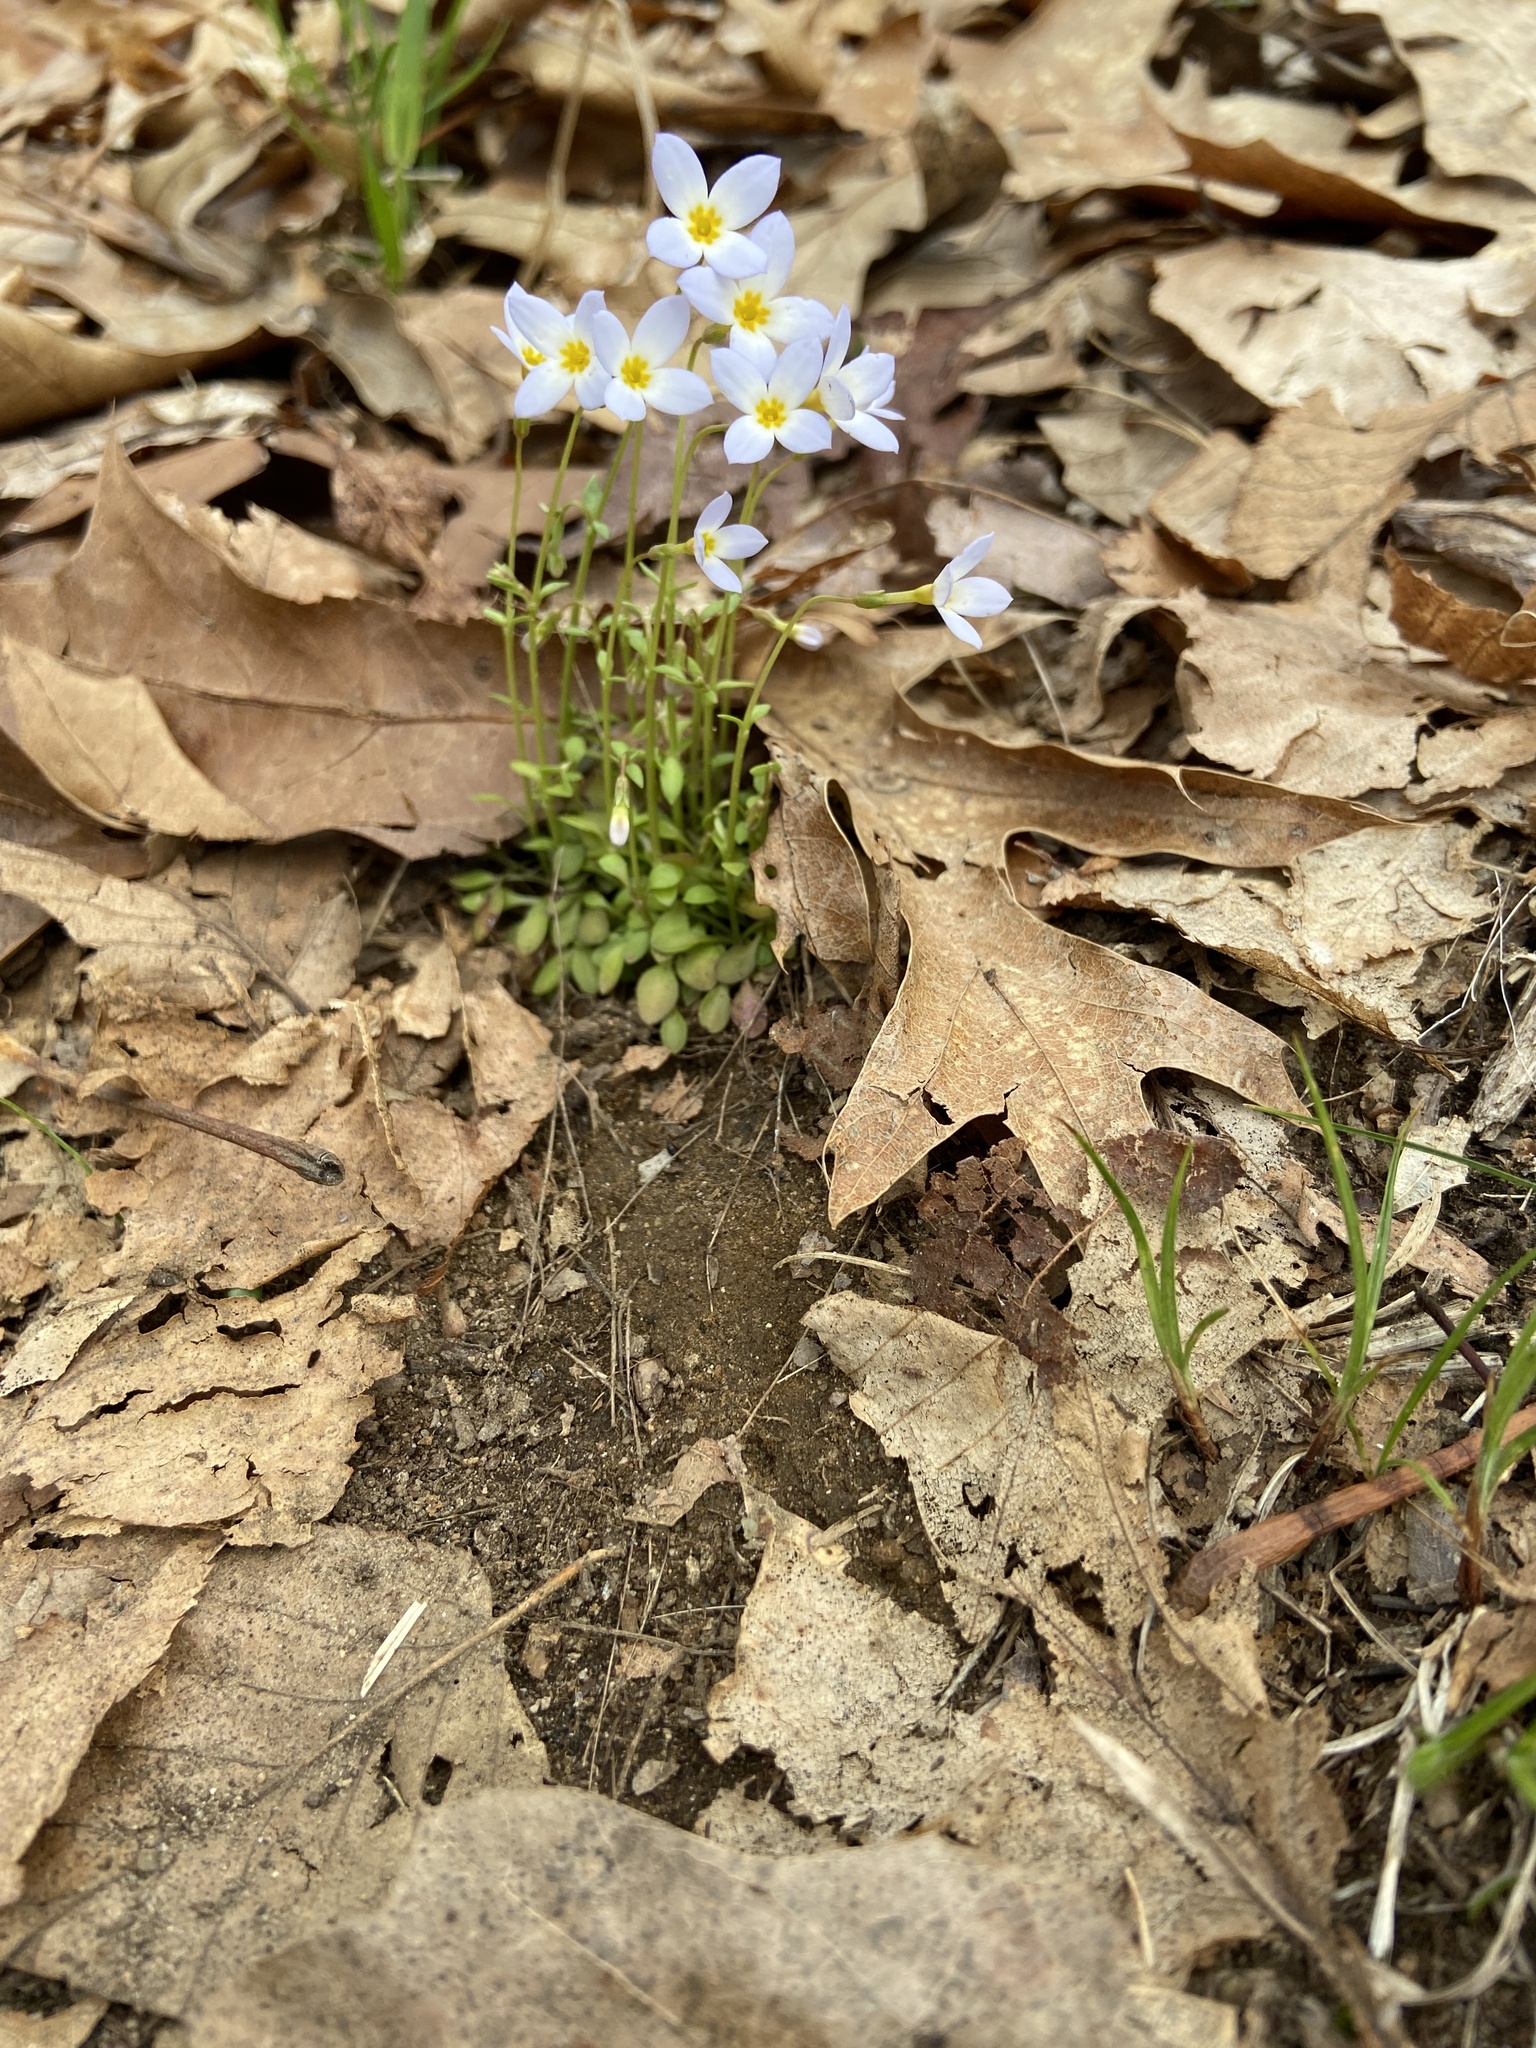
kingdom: Plantae
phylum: Tracheophyta
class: Magnoliopsida
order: Gentianales
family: Rubiaceae
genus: Houstonia
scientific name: Houstonia caerulea
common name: Bluets
